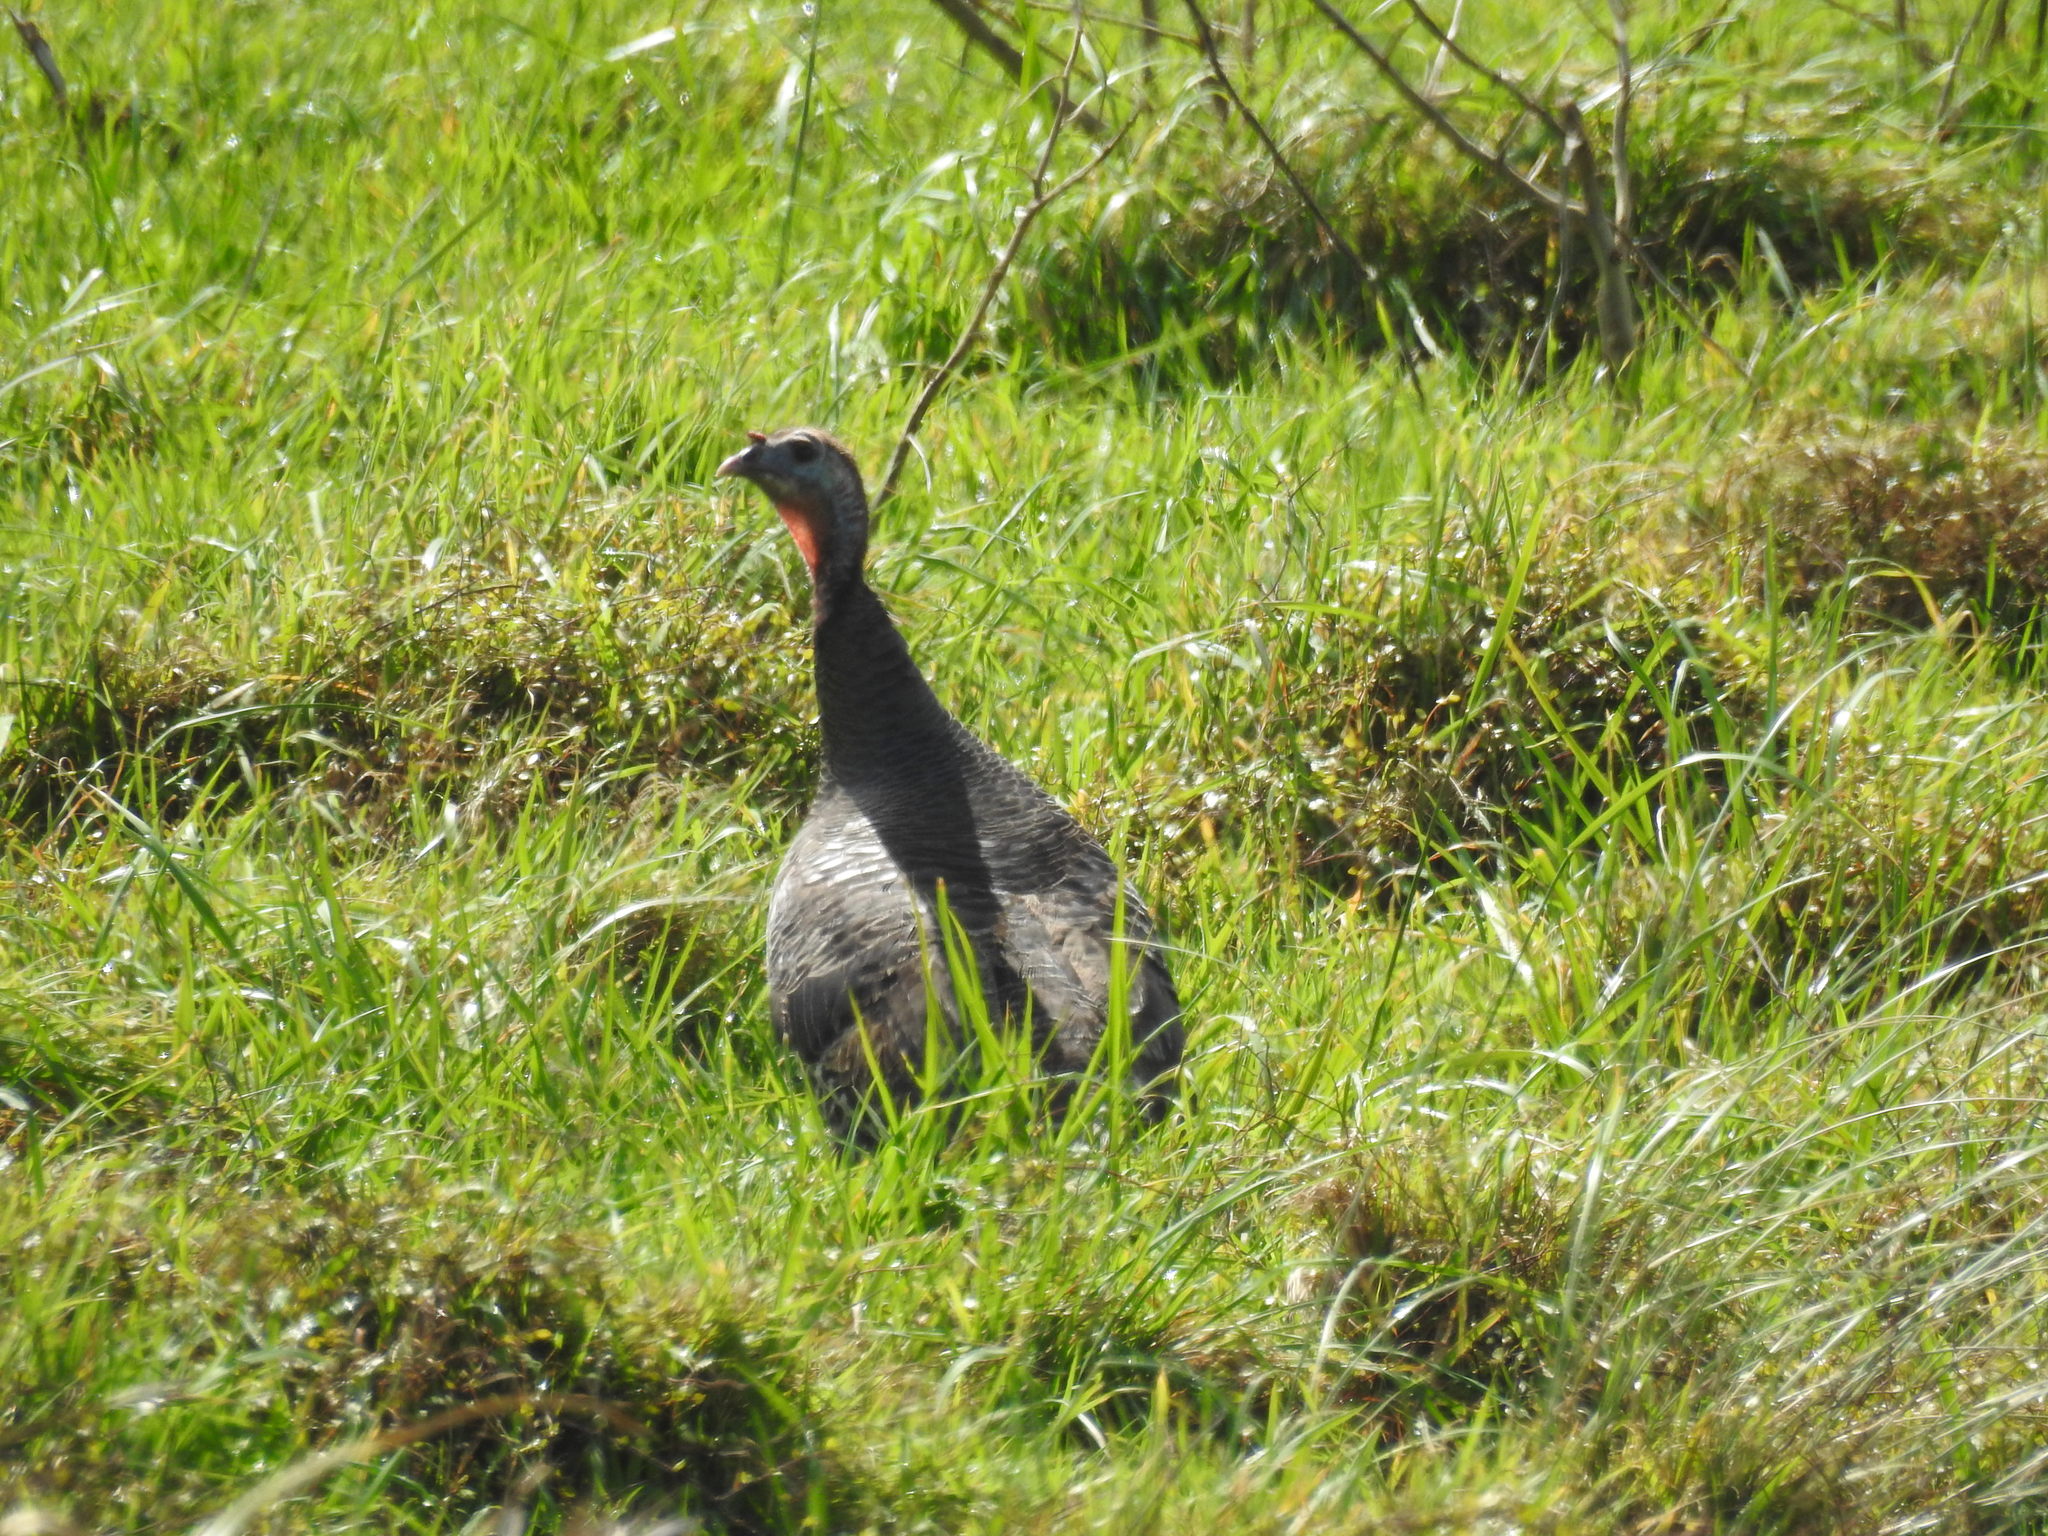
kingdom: Animalia
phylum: Chordata
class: Aves
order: Galliformes
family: Phasianidae
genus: Meleagris
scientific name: Meleagris gallopavo
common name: Wild turkey
